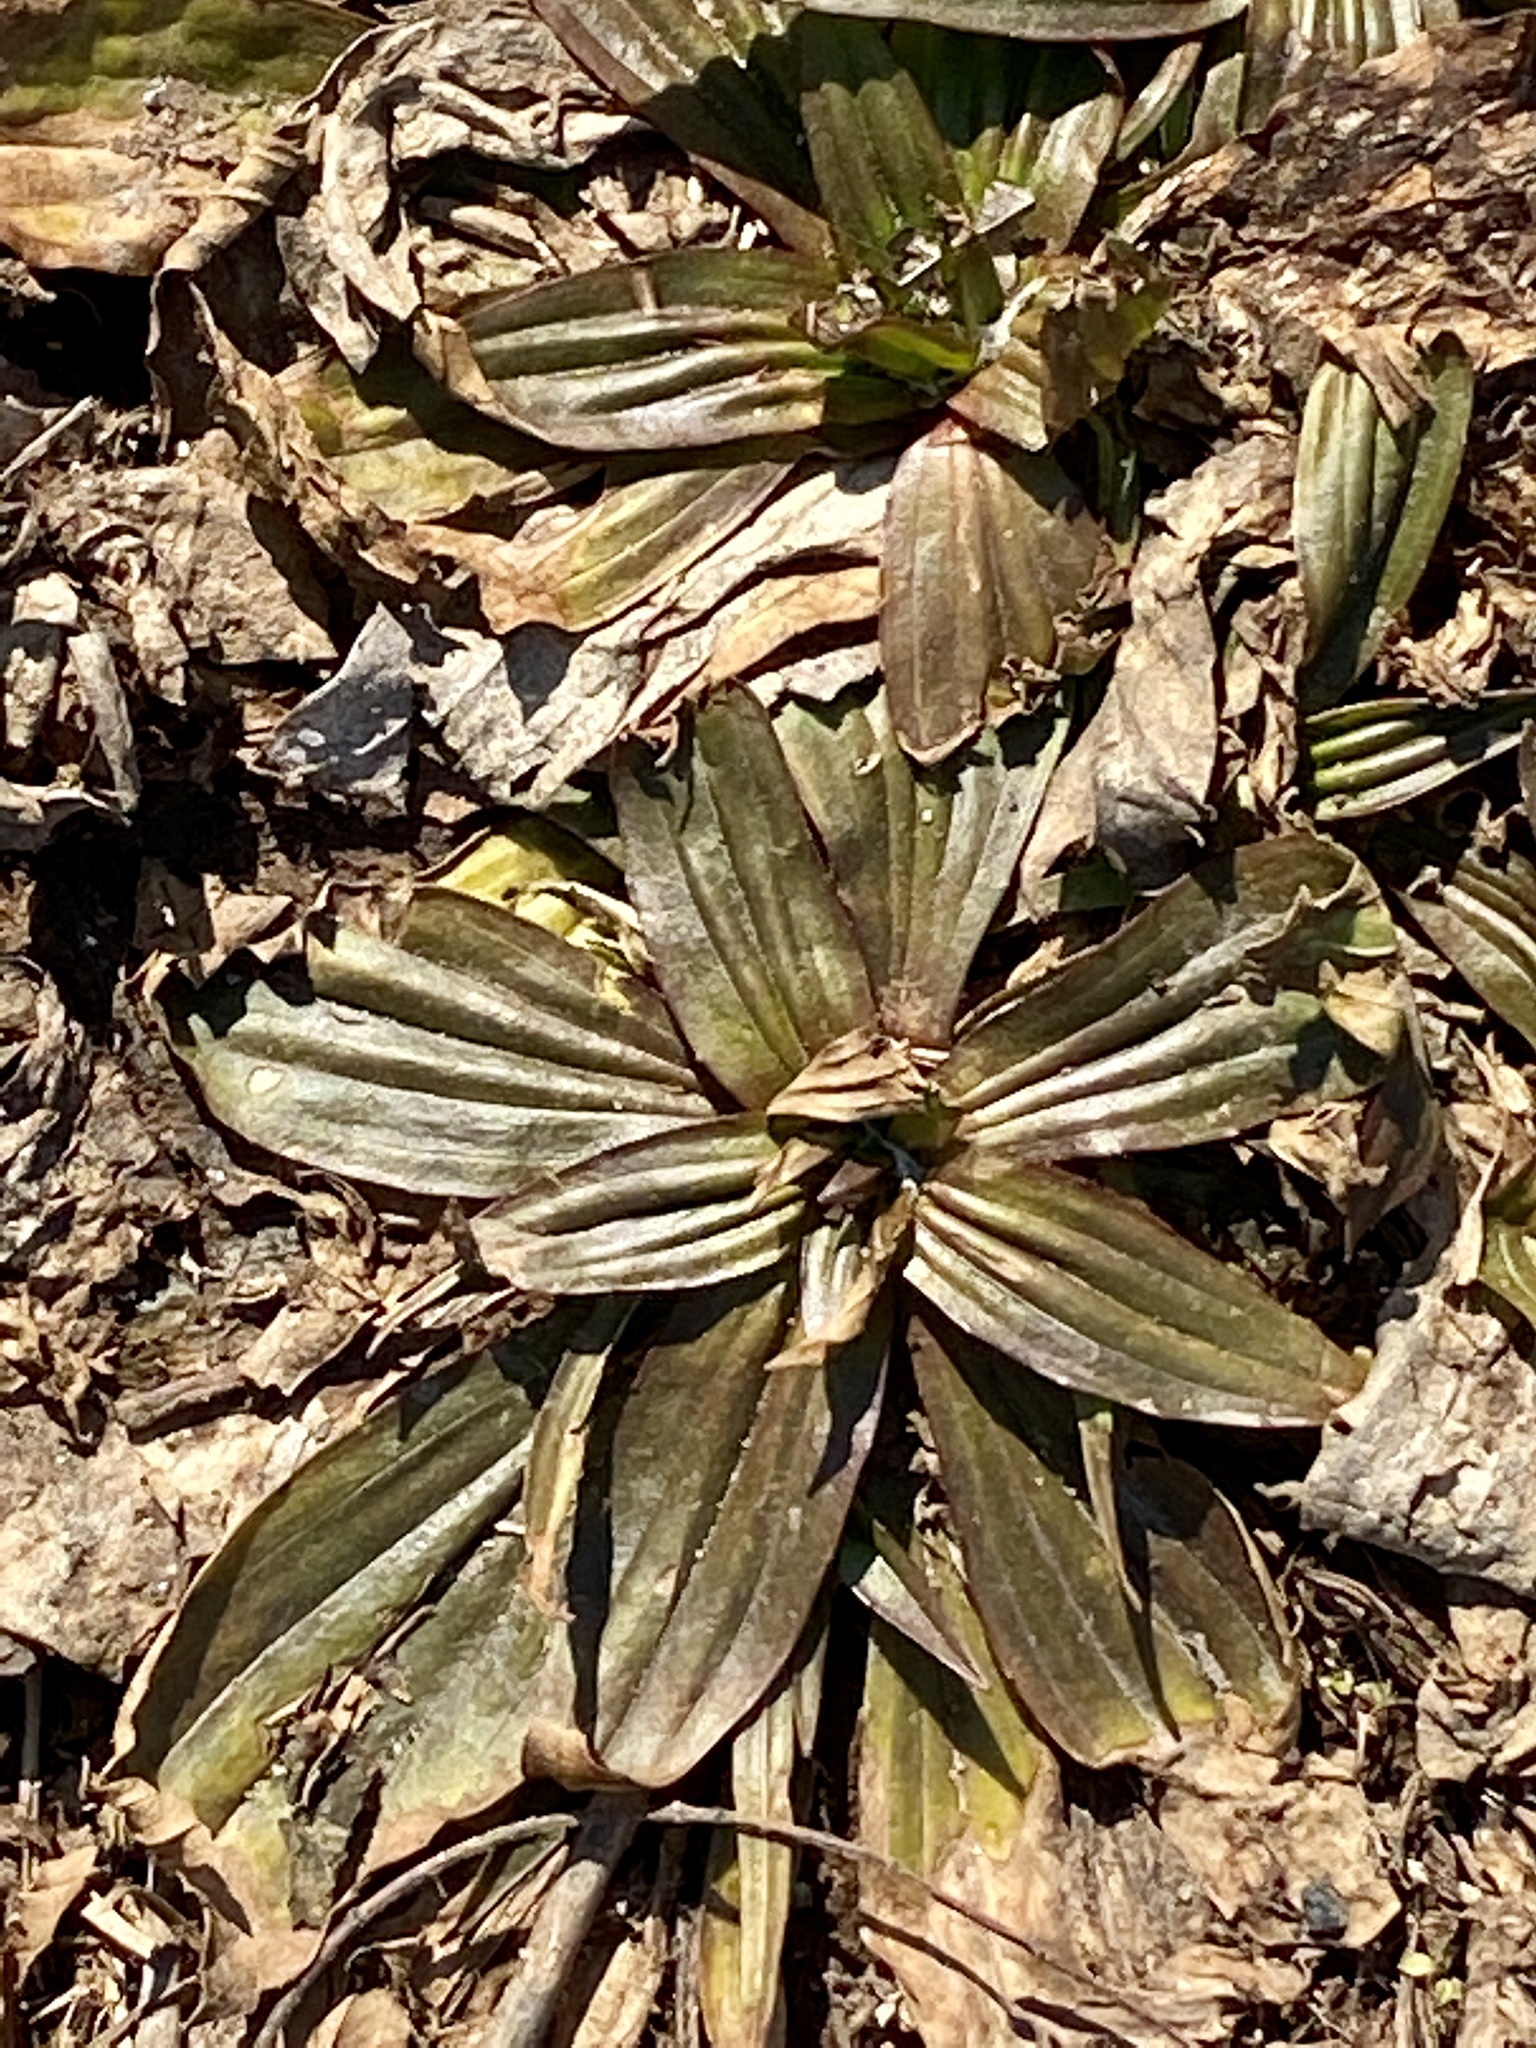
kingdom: Plantae
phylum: Tracheophyta
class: Magnoliopsida
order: Lamiales
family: Plantaginaceae
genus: Plantago
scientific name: Plantago lanceolata
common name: Ribwort plantain
